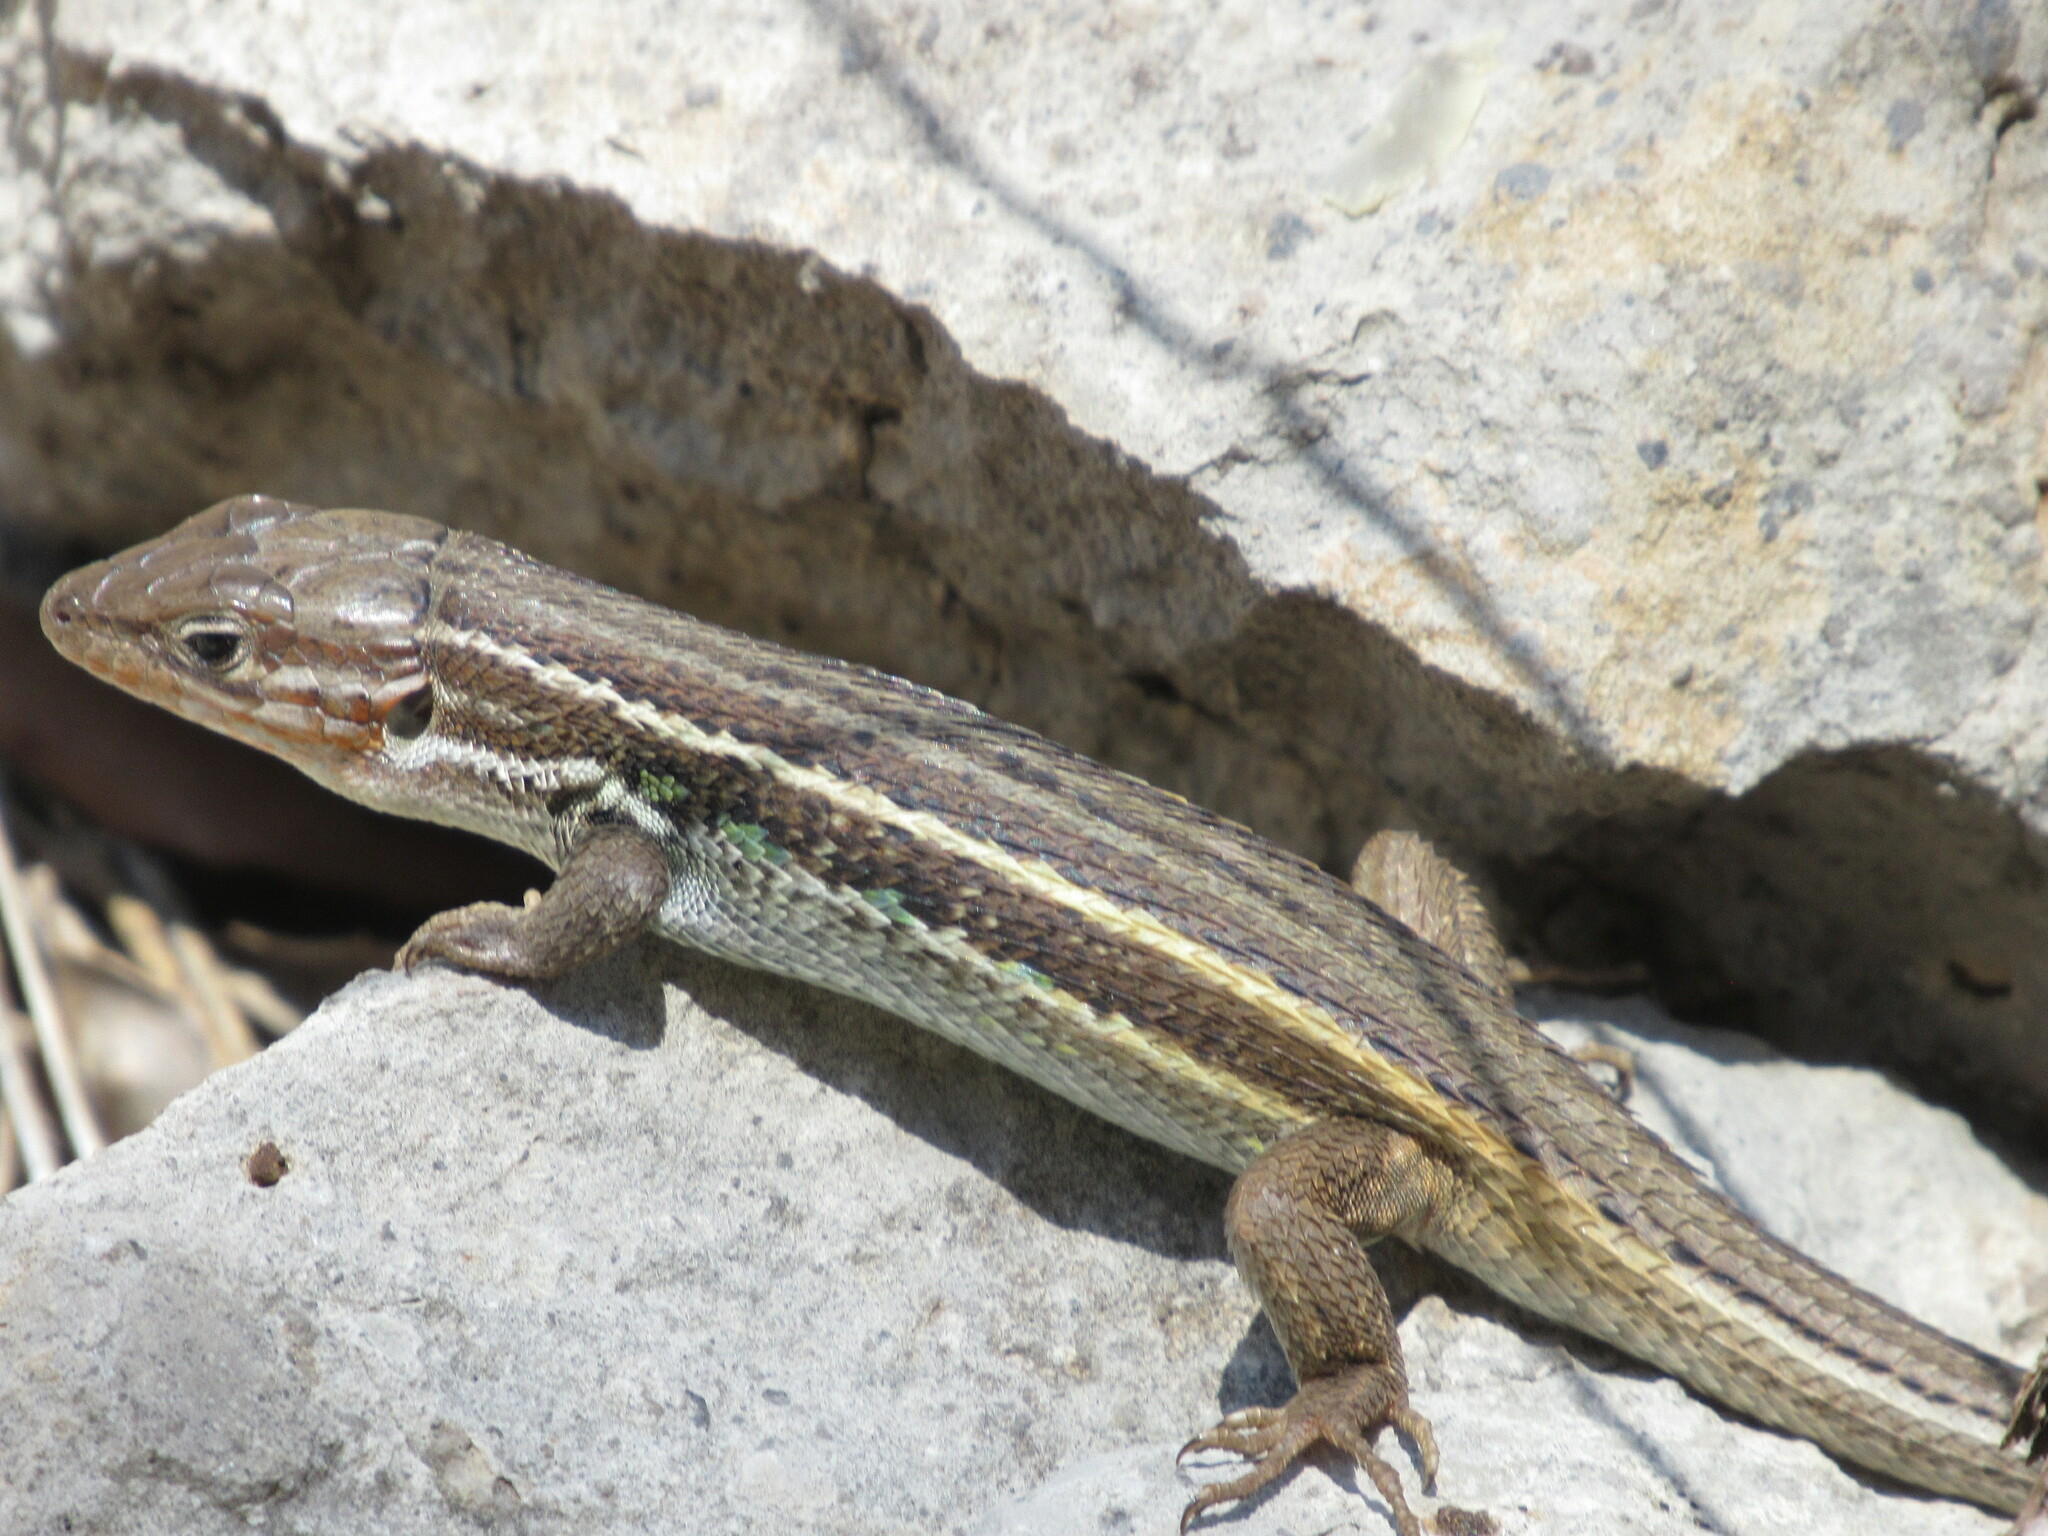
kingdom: Animalia
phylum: Chordata
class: Squamata
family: Lacertidae
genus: Psammodromus
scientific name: Psammodromus algirus
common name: Algerian psammodromus
